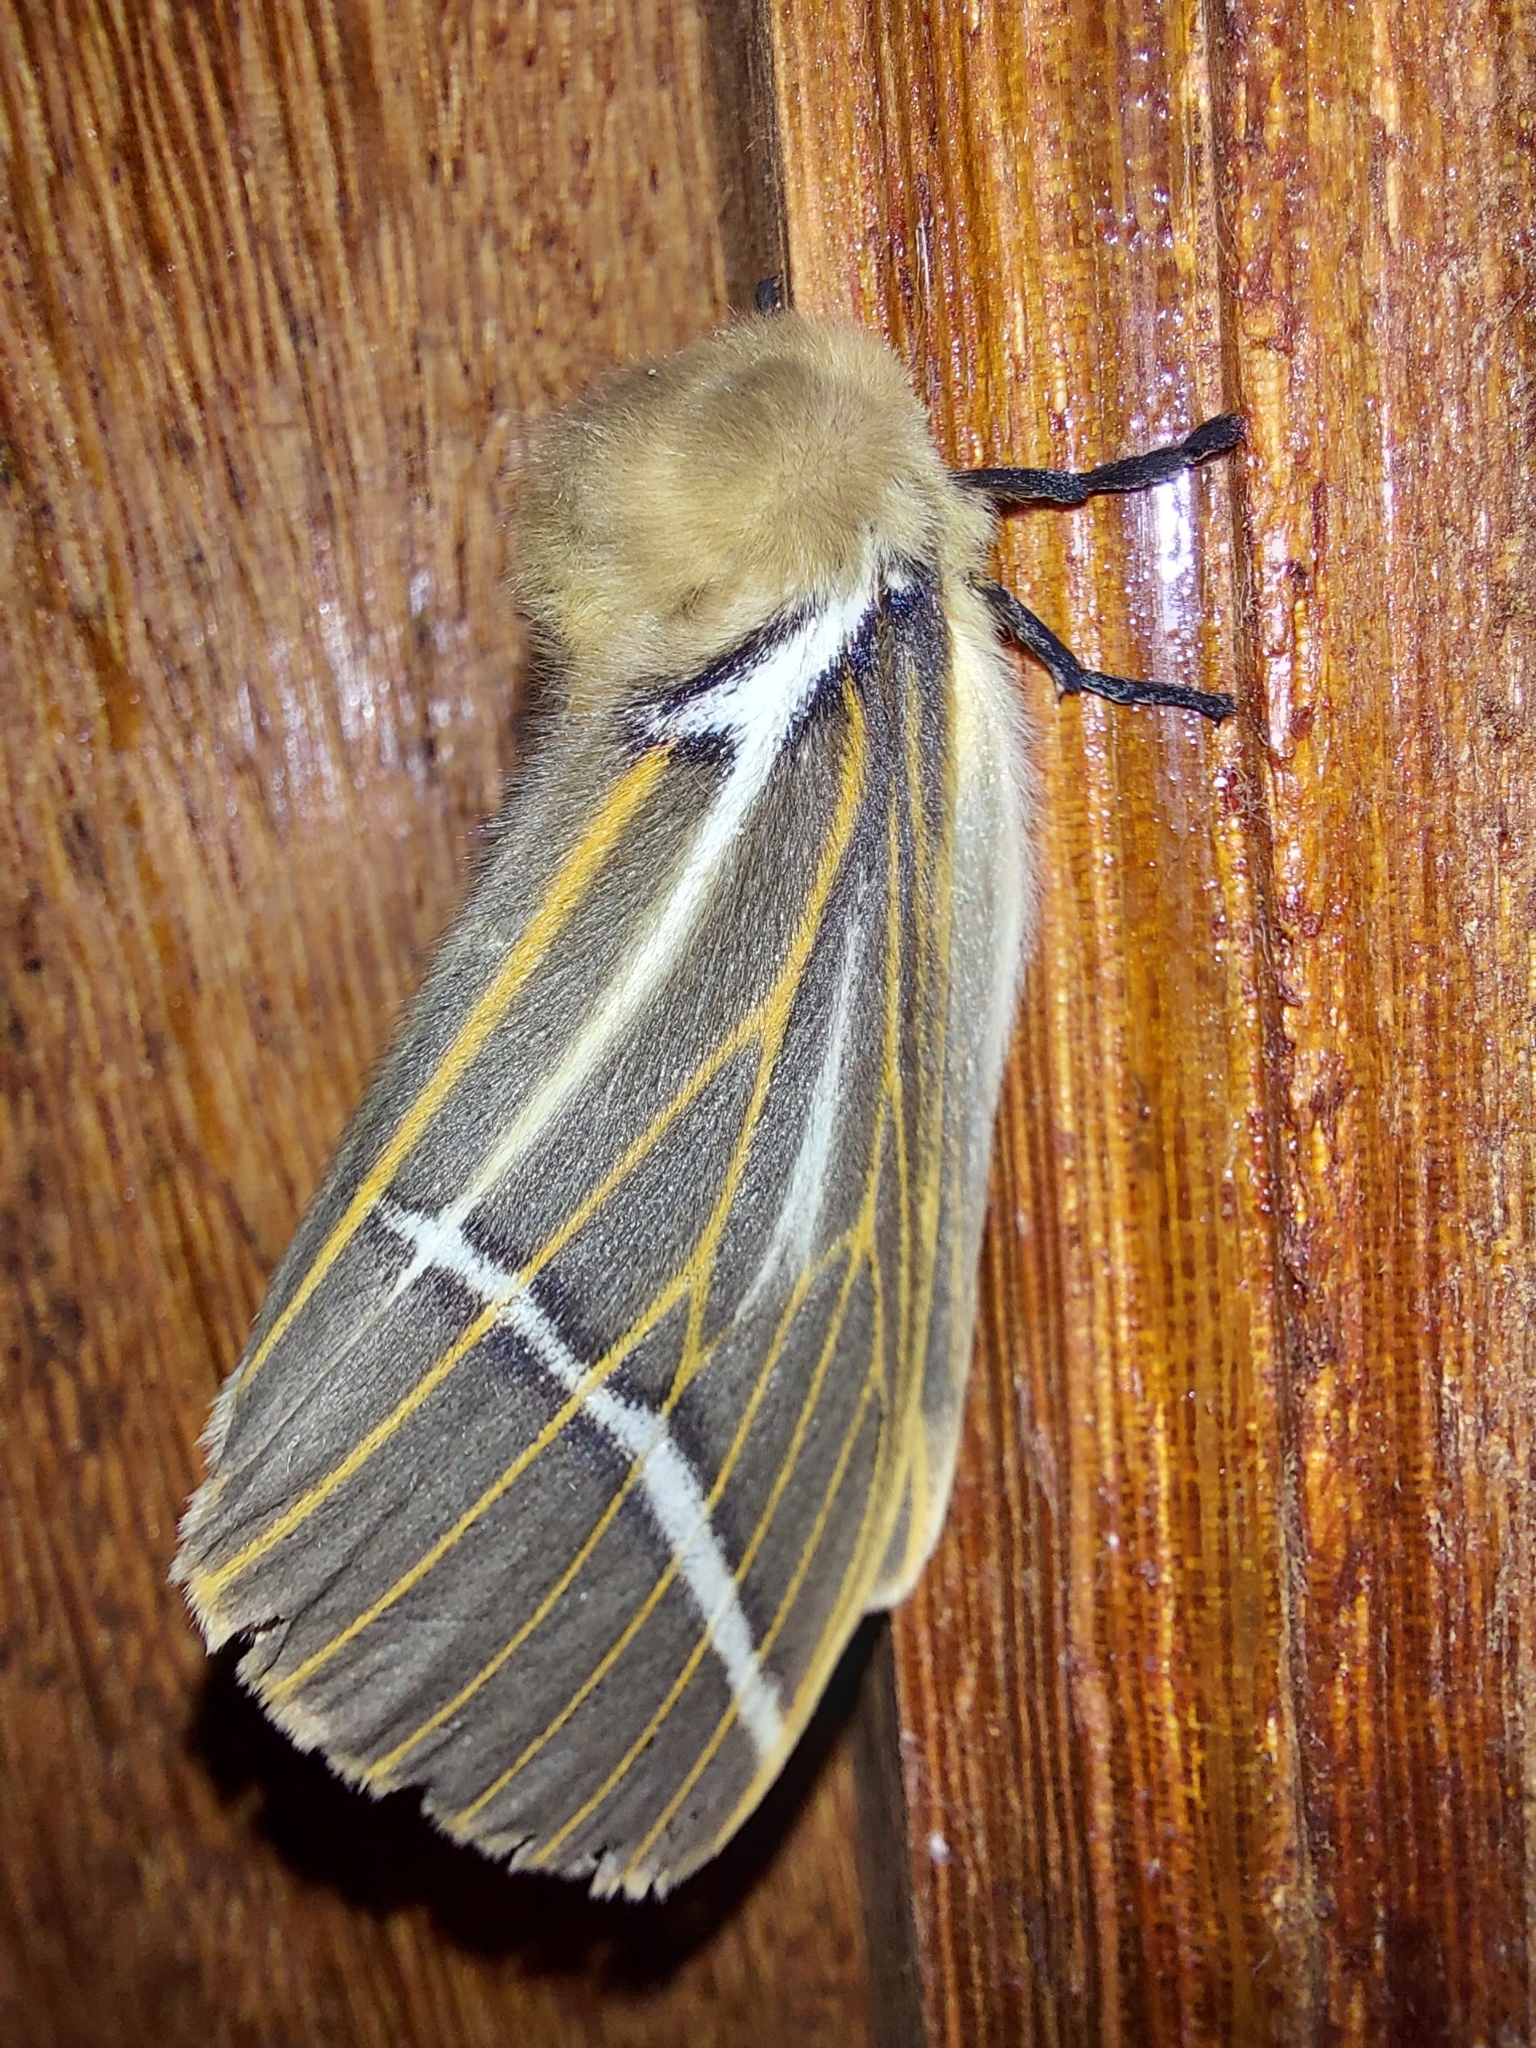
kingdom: Animalia
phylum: Arthropoda
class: Insecta
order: Lepidoptera
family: Saturniidae
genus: Kentroleuca
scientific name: Kentroleuca albilinea
